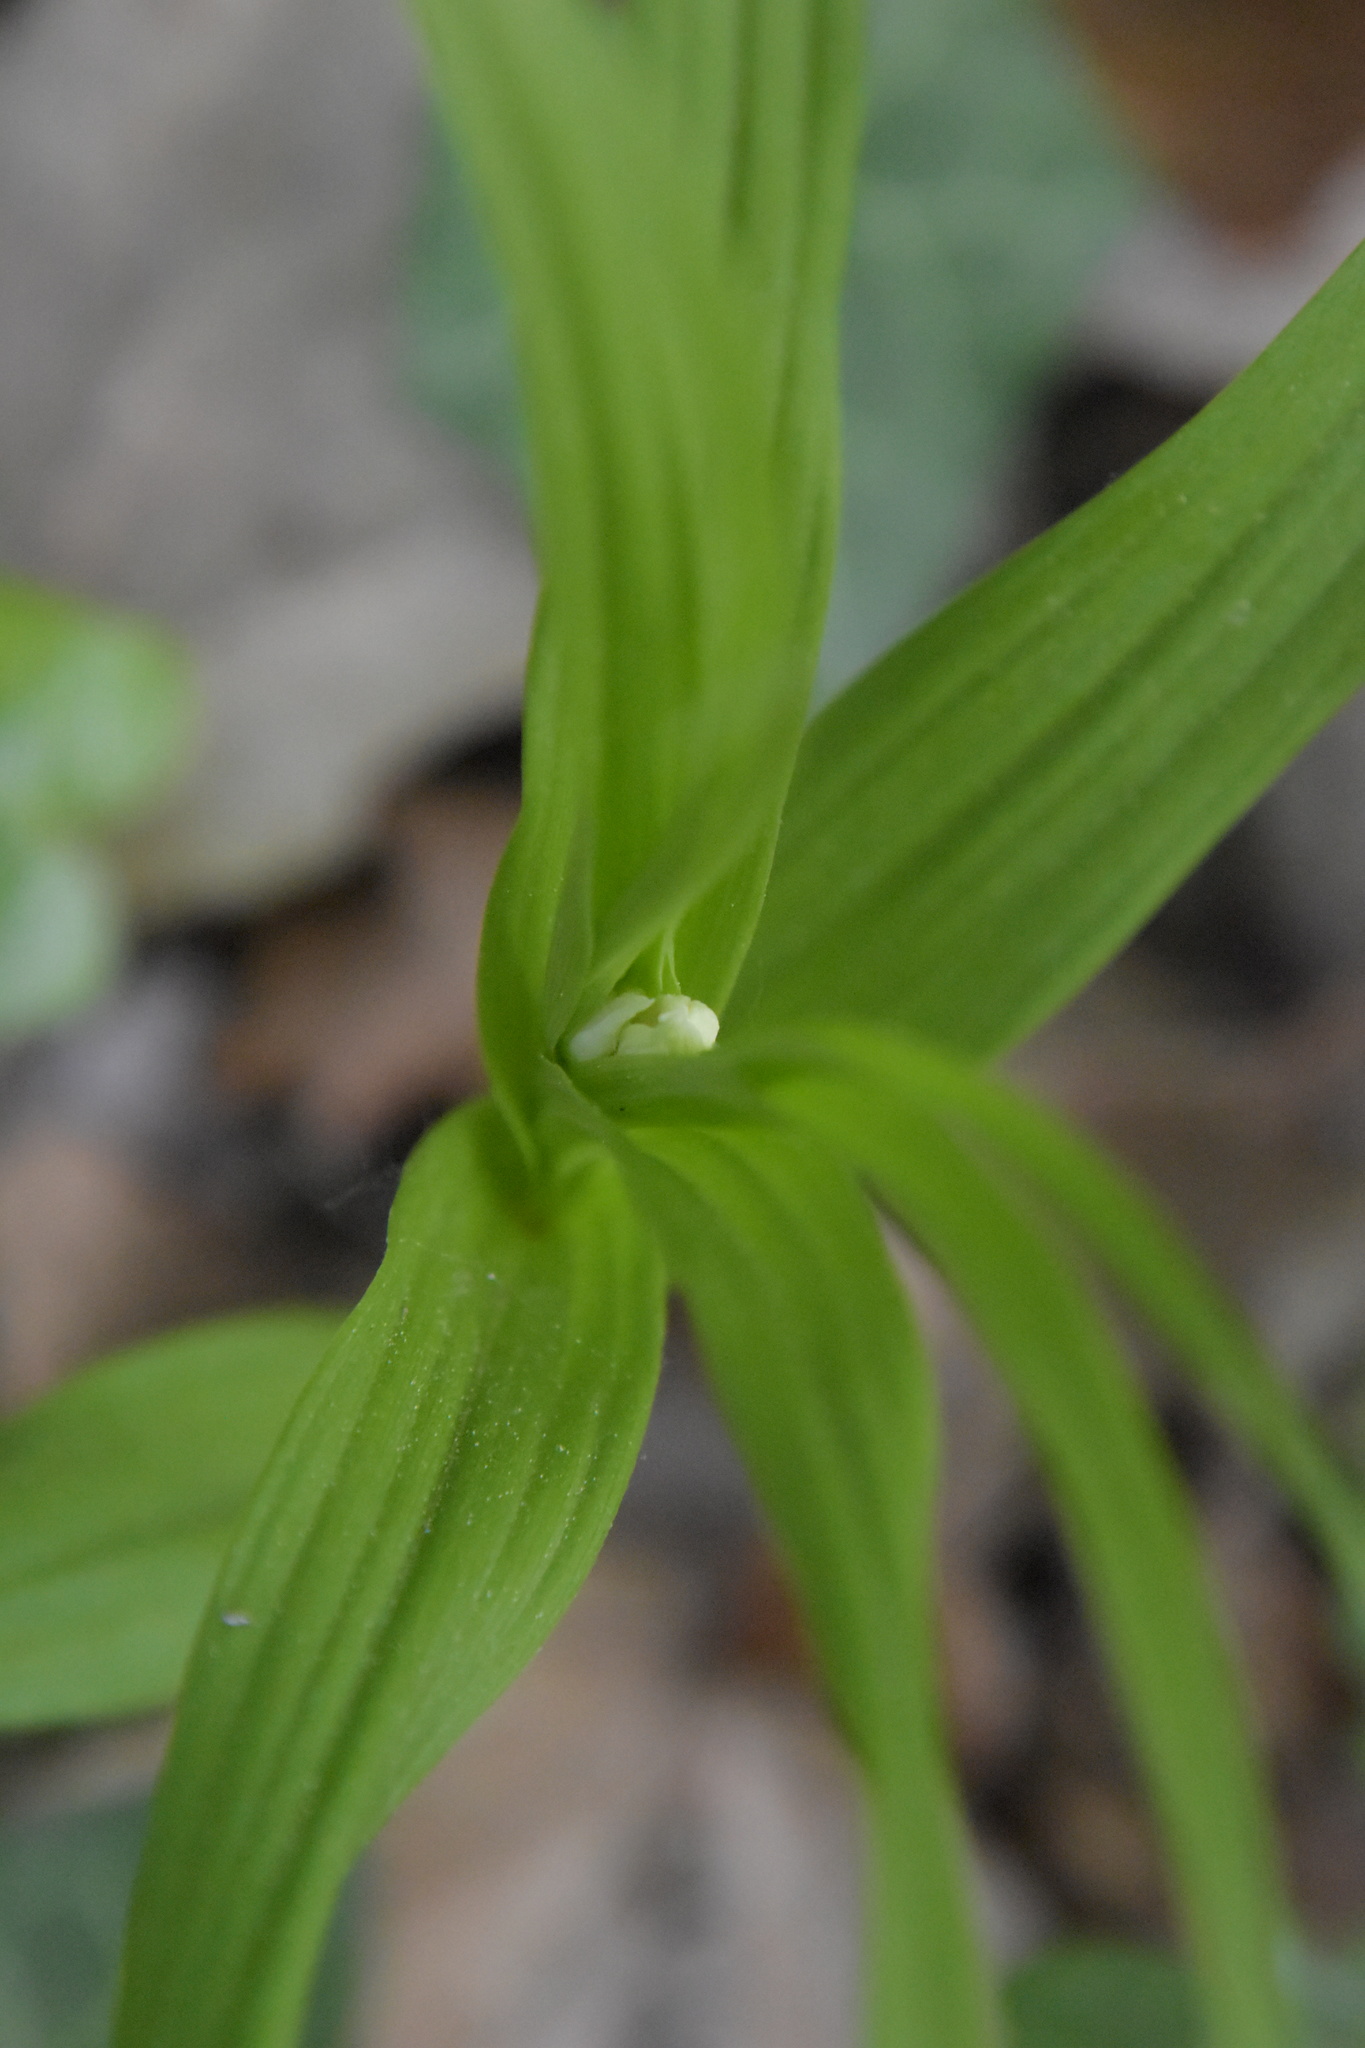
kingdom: Plantae
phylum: Tracheophyta
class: Liliopsida
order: Asparagales
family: Orchidaceae
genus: Cephalanthera
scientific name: Cephalanthera longifolia
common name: Narrow-leaved helleborine
